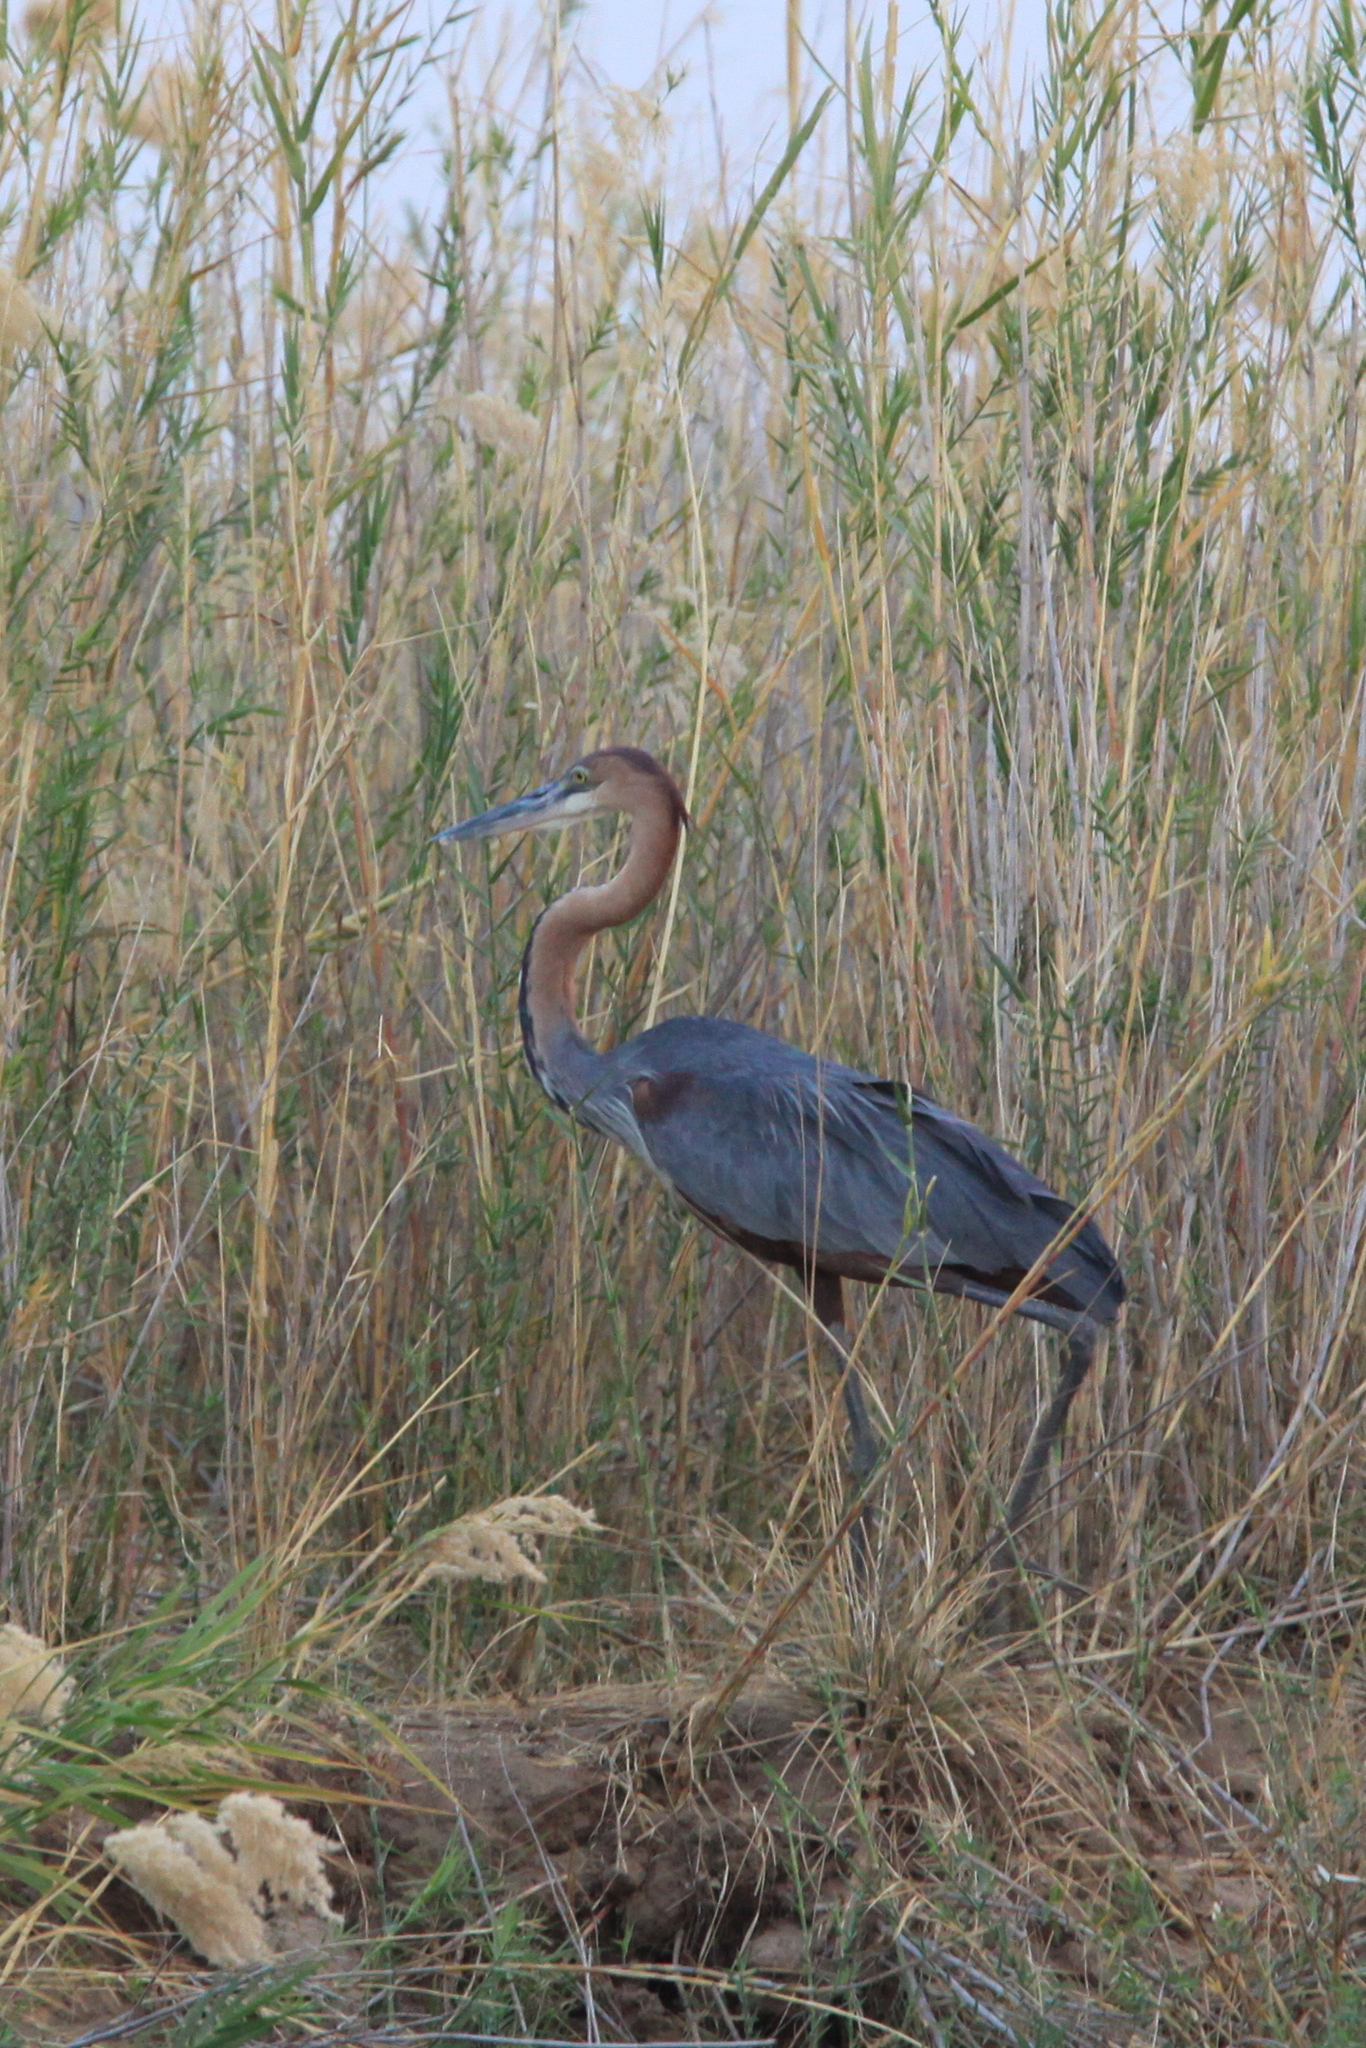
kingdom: Animalia
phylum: Chordata
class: Aves
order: Pelecaniformes
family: Ardeidae
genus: Ardea
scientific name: Ardea goliath
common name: Goliath heron
